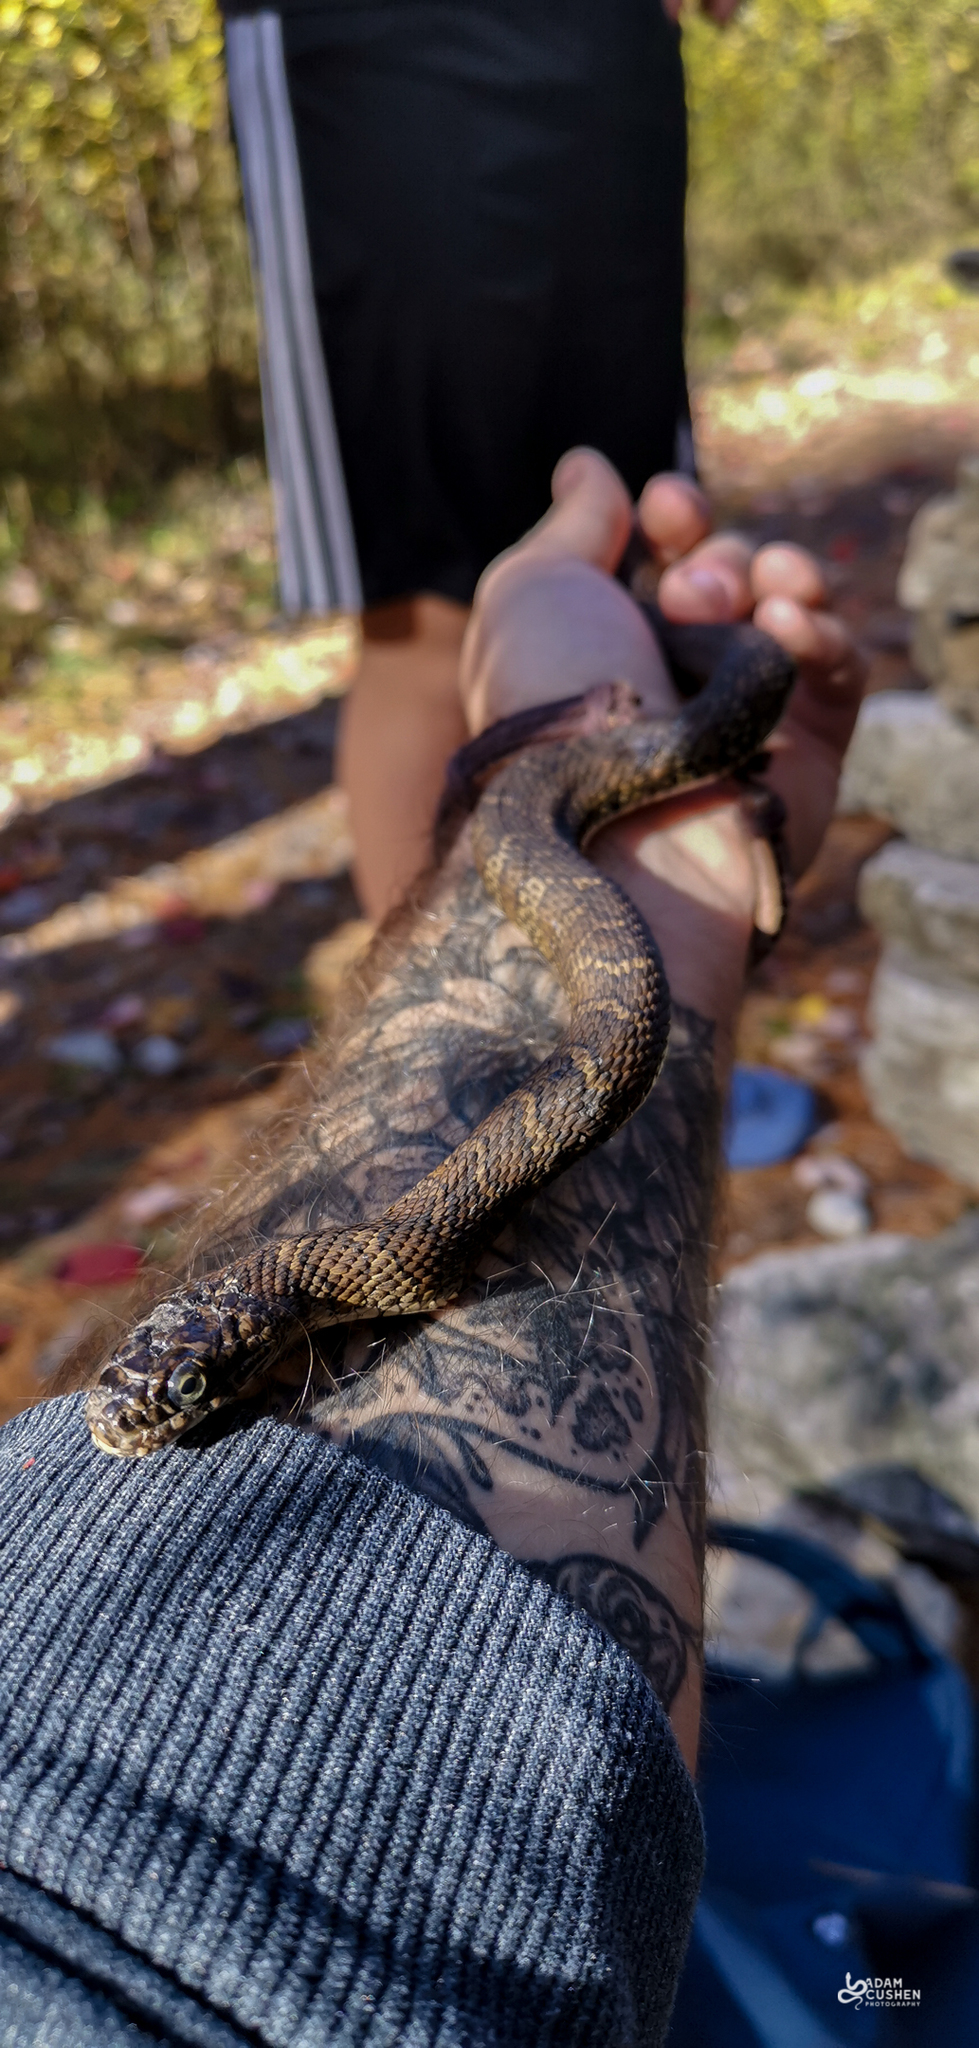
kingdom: Animalia
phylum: Chordata
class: Squamata
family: Colubridae
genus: Nerodia
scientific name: Nerodia sipedon
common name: Northern water snake
